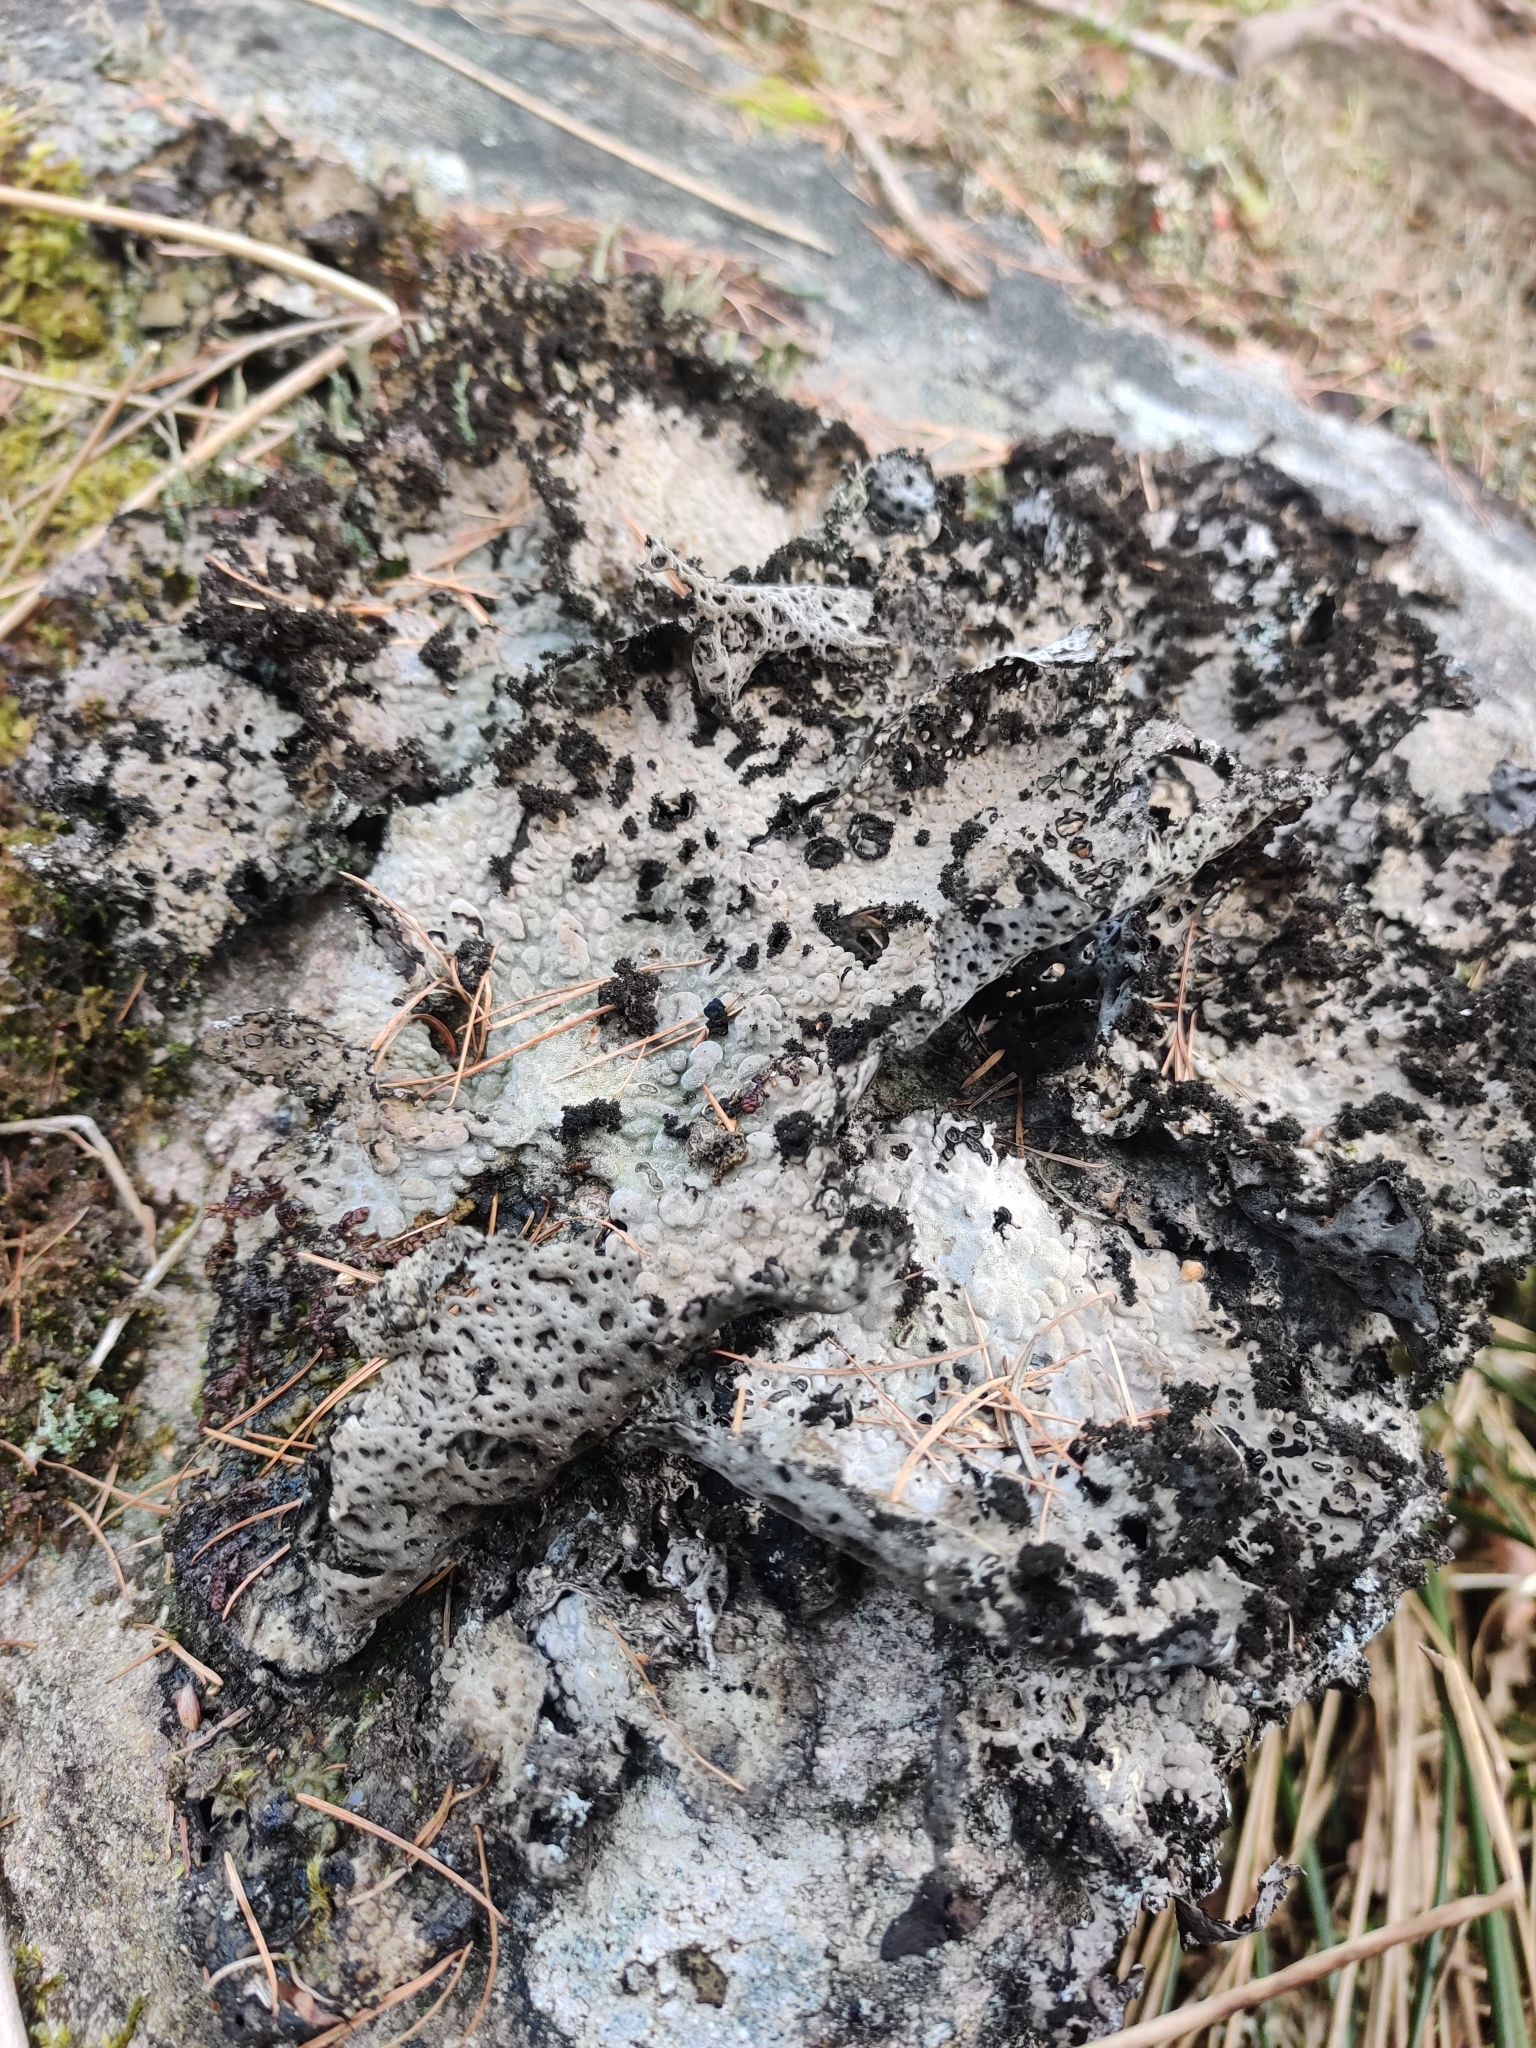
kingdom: Fungi
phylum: Ascomycota
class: Lecanoromycetes
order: Umbilicariales
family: Umbilicariaceae
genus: Lasallia
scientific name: Lasallia pustulata
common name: Blistered toadskin lichen
